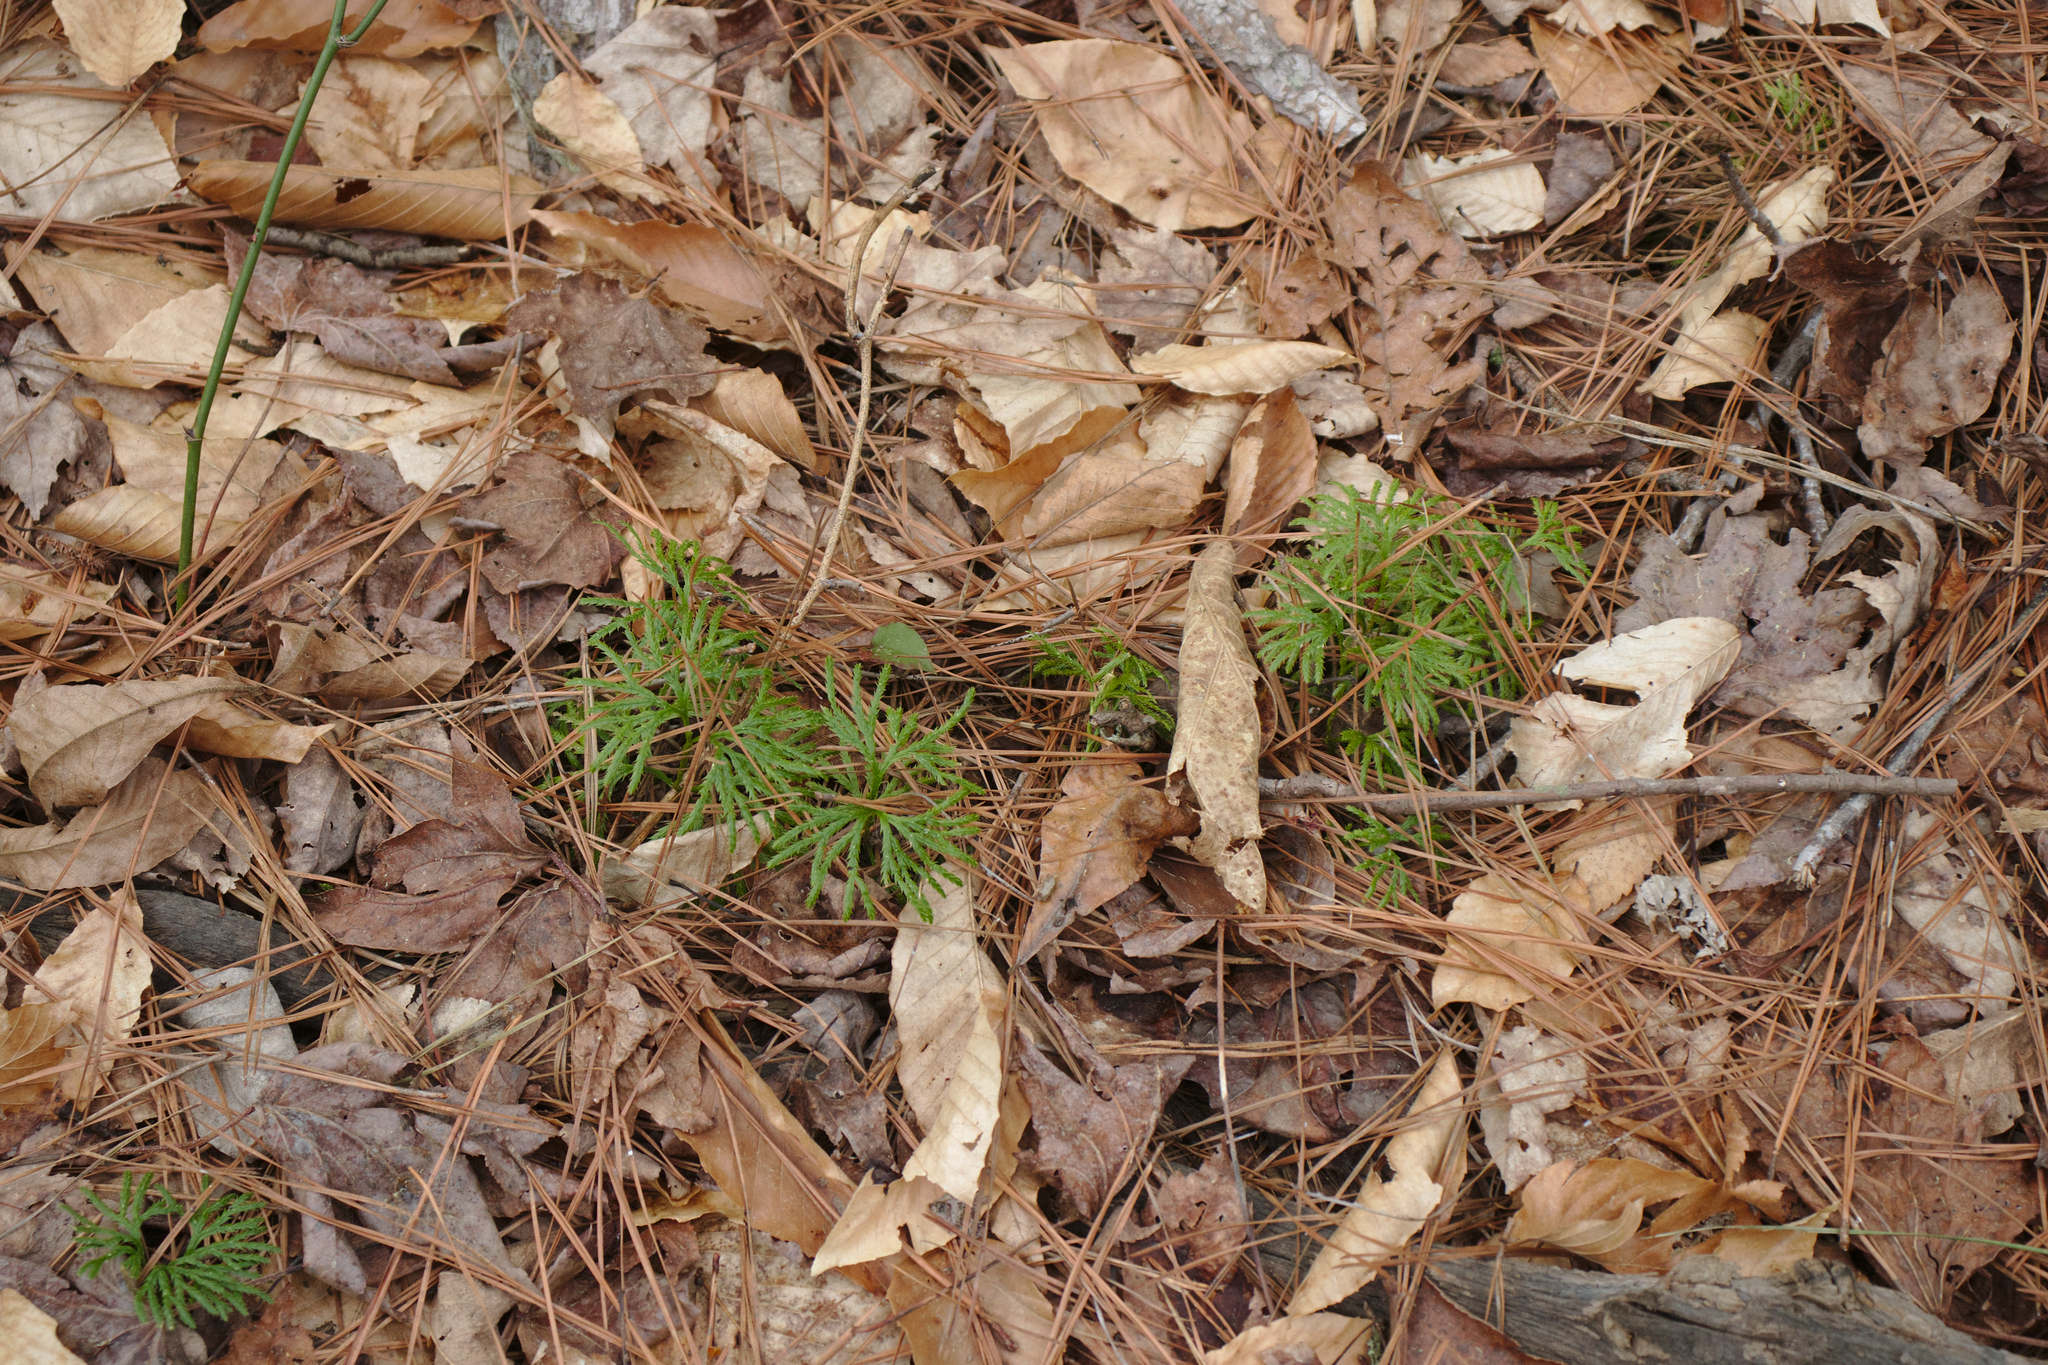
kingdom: Plantae
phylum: Tracheophyta
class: Lycopodiopsida
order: Lycopodiales
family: Lycopodiaceae
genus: Diphasiastrum
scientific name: Diphasiastrum digitatum
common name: Southern running-pine
